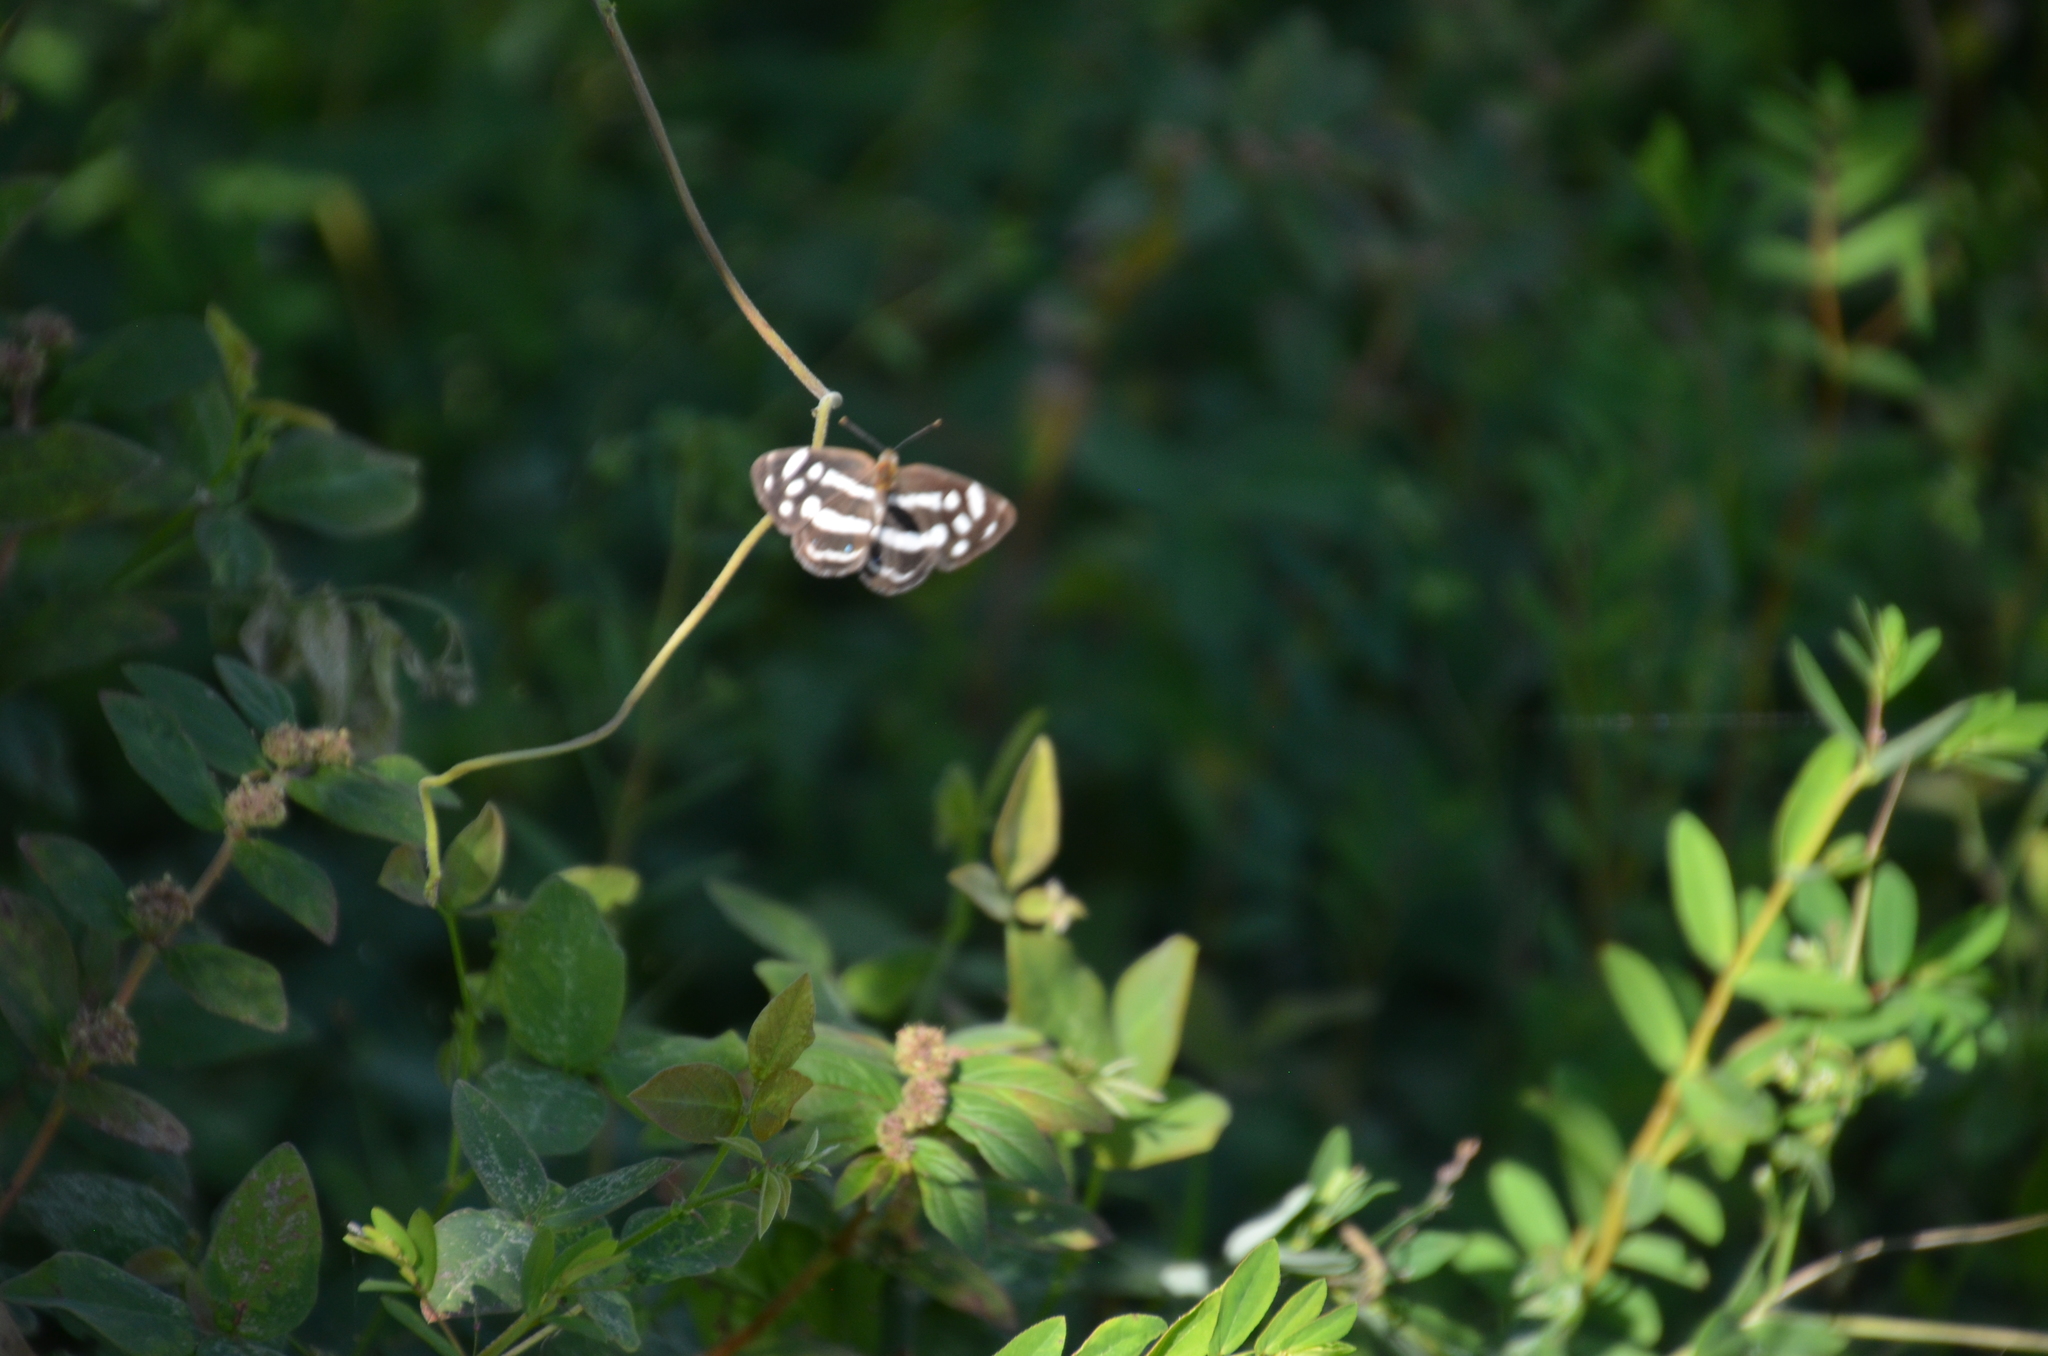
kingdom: Animalia
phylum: Arthropoda
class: Insecta
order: Lepidoptera
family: Nymphalidae
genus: Dynamine
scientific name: Dynamine mylitta
